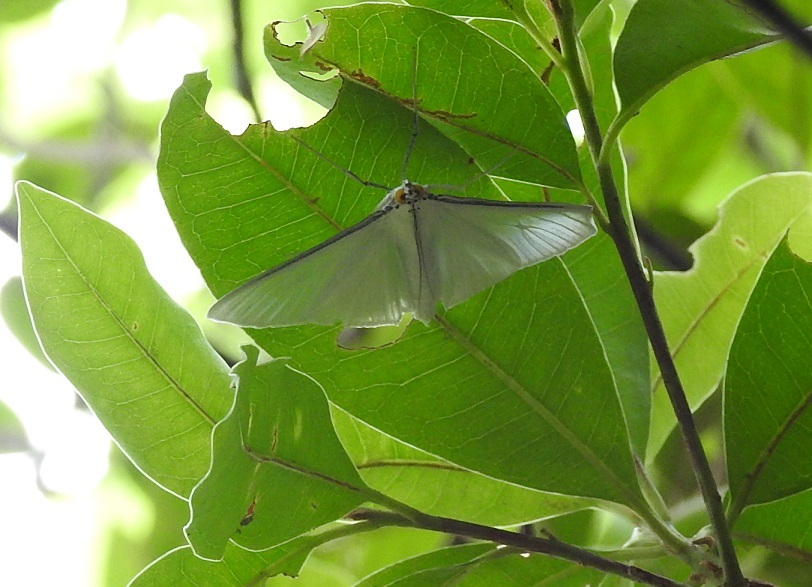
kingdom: Animalia
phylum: Arthropoda
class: Insecta
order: Lepidoptera
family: Crambidae
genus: Palpita
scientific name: Palpita flegia
